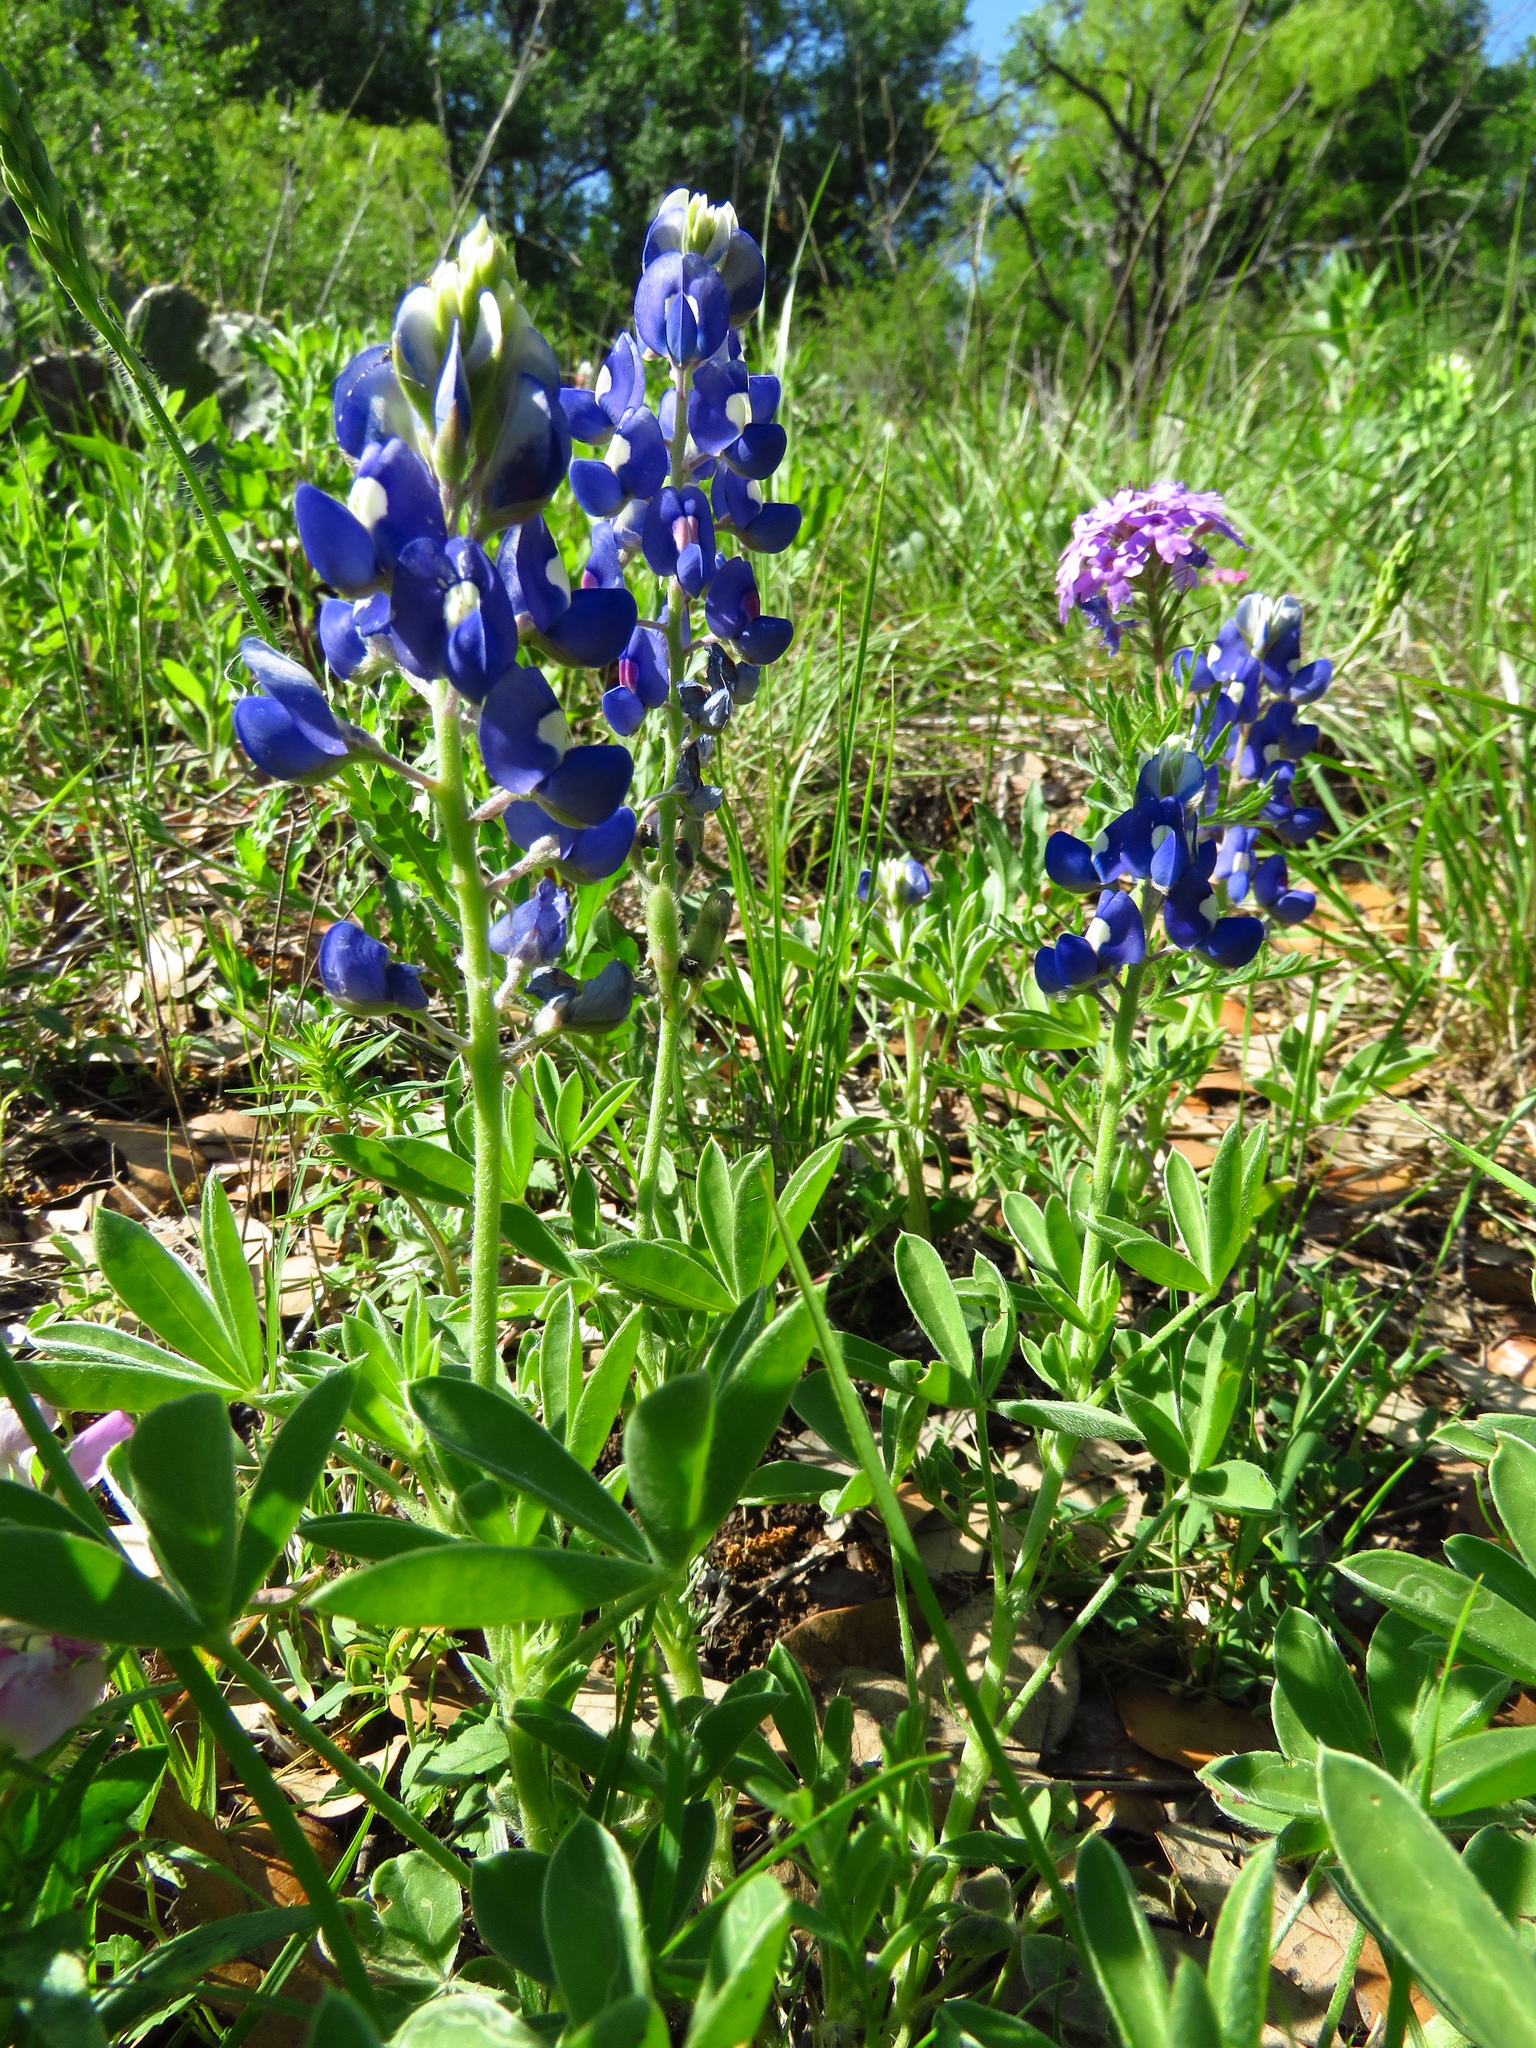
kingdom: Plantae
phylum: Tracheophyta
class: Magnoliopsida
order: Fabales
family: Fabaceae
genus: Lupinus
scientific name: Lupinus texensis
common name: Texas bluebonnet
